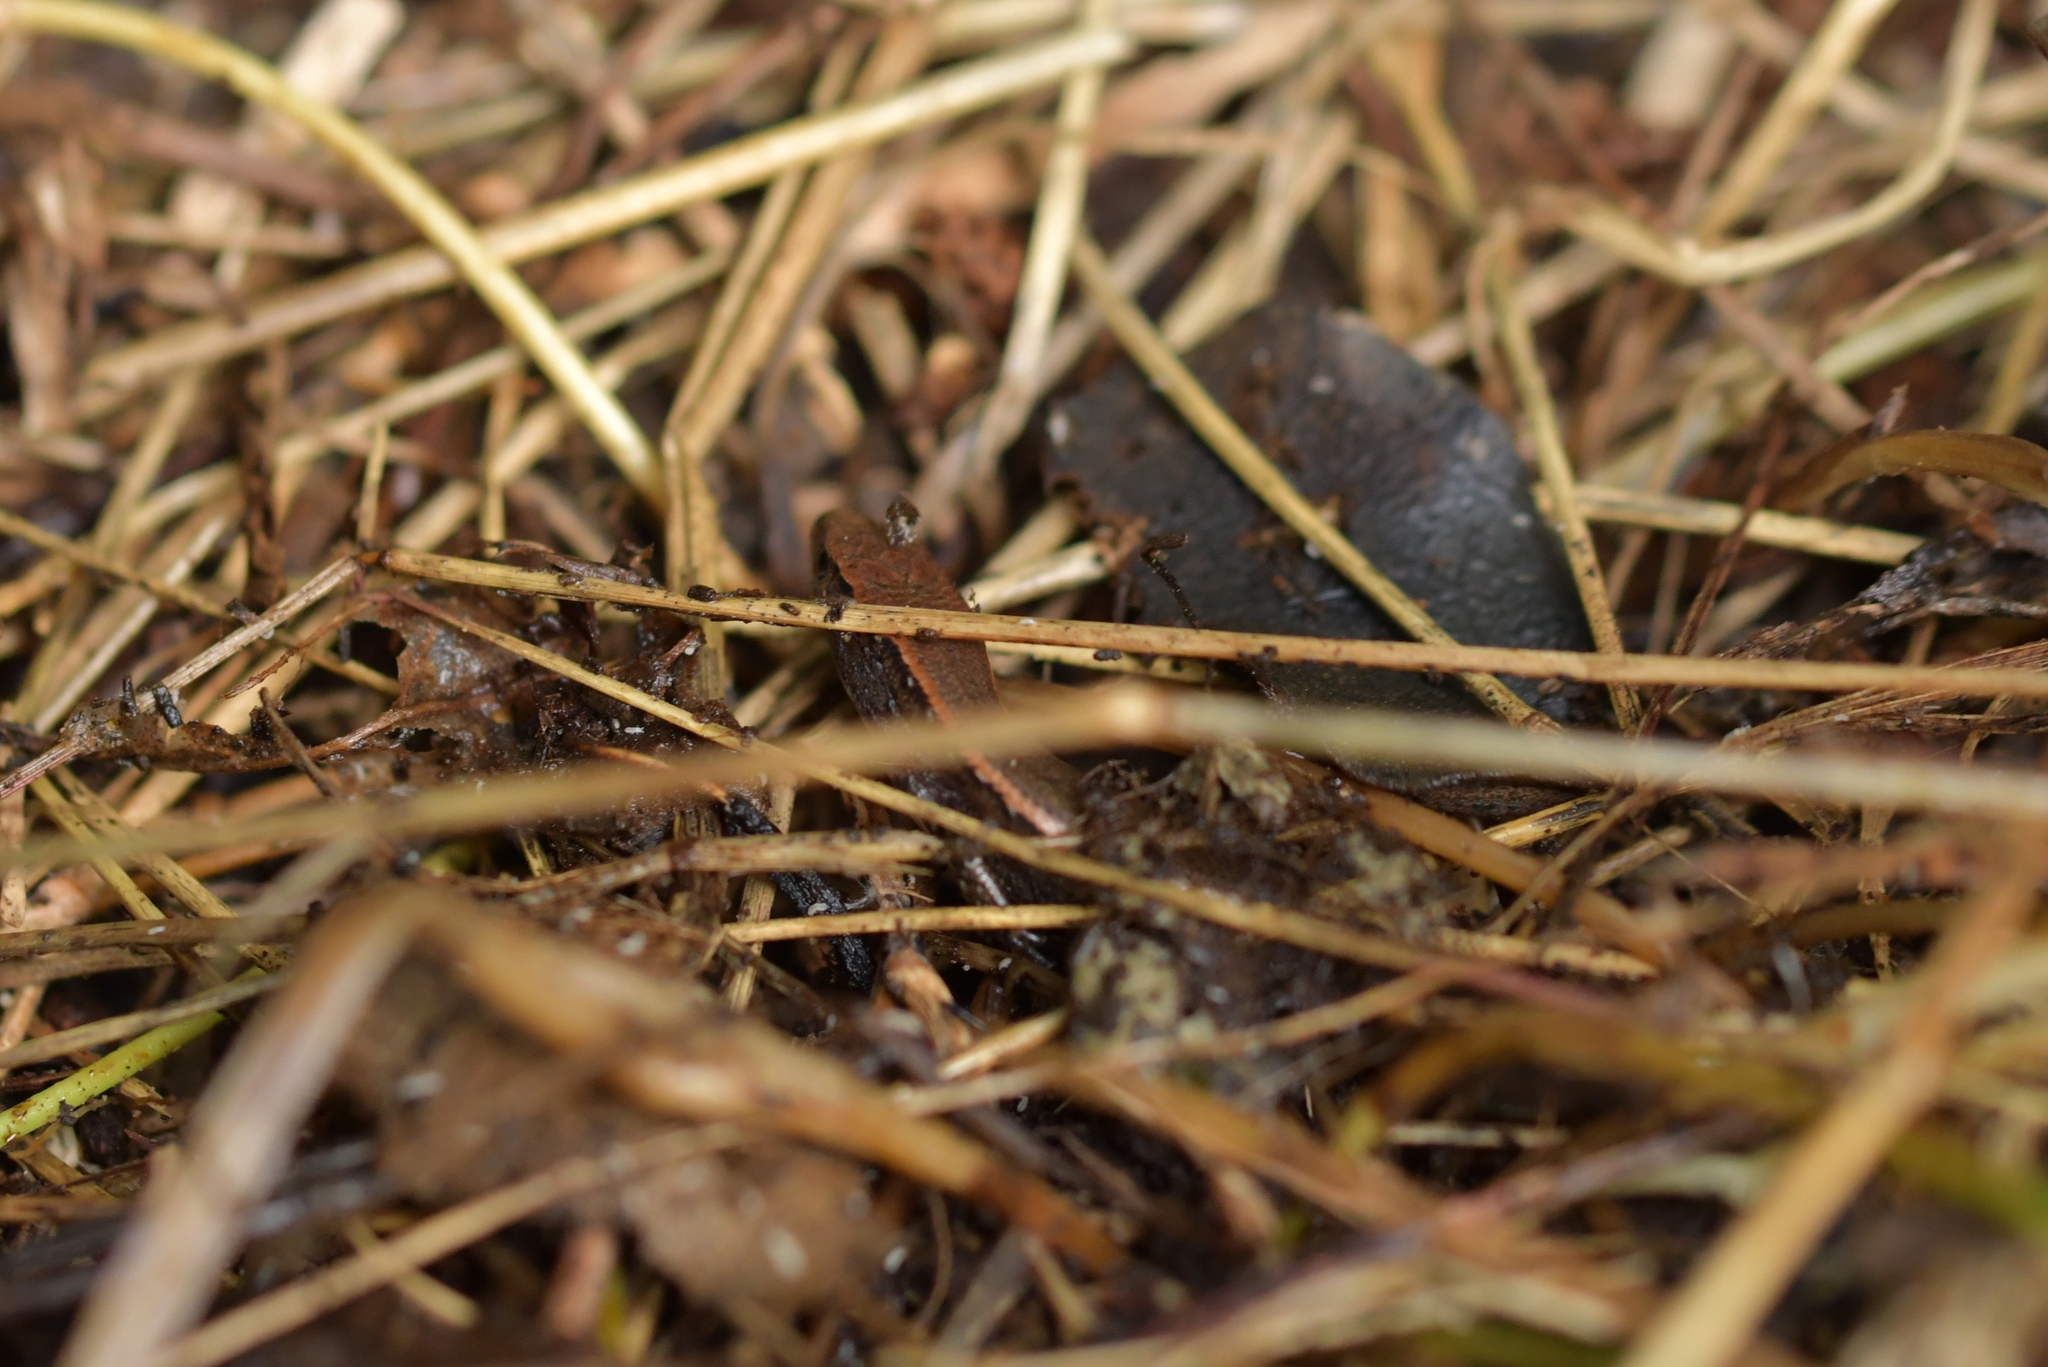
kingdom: Animalia
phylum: Chordata
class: Squamata
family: Scincidae
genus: Oligosoma
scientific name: Oligosoma aeneum
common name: Copper skink
